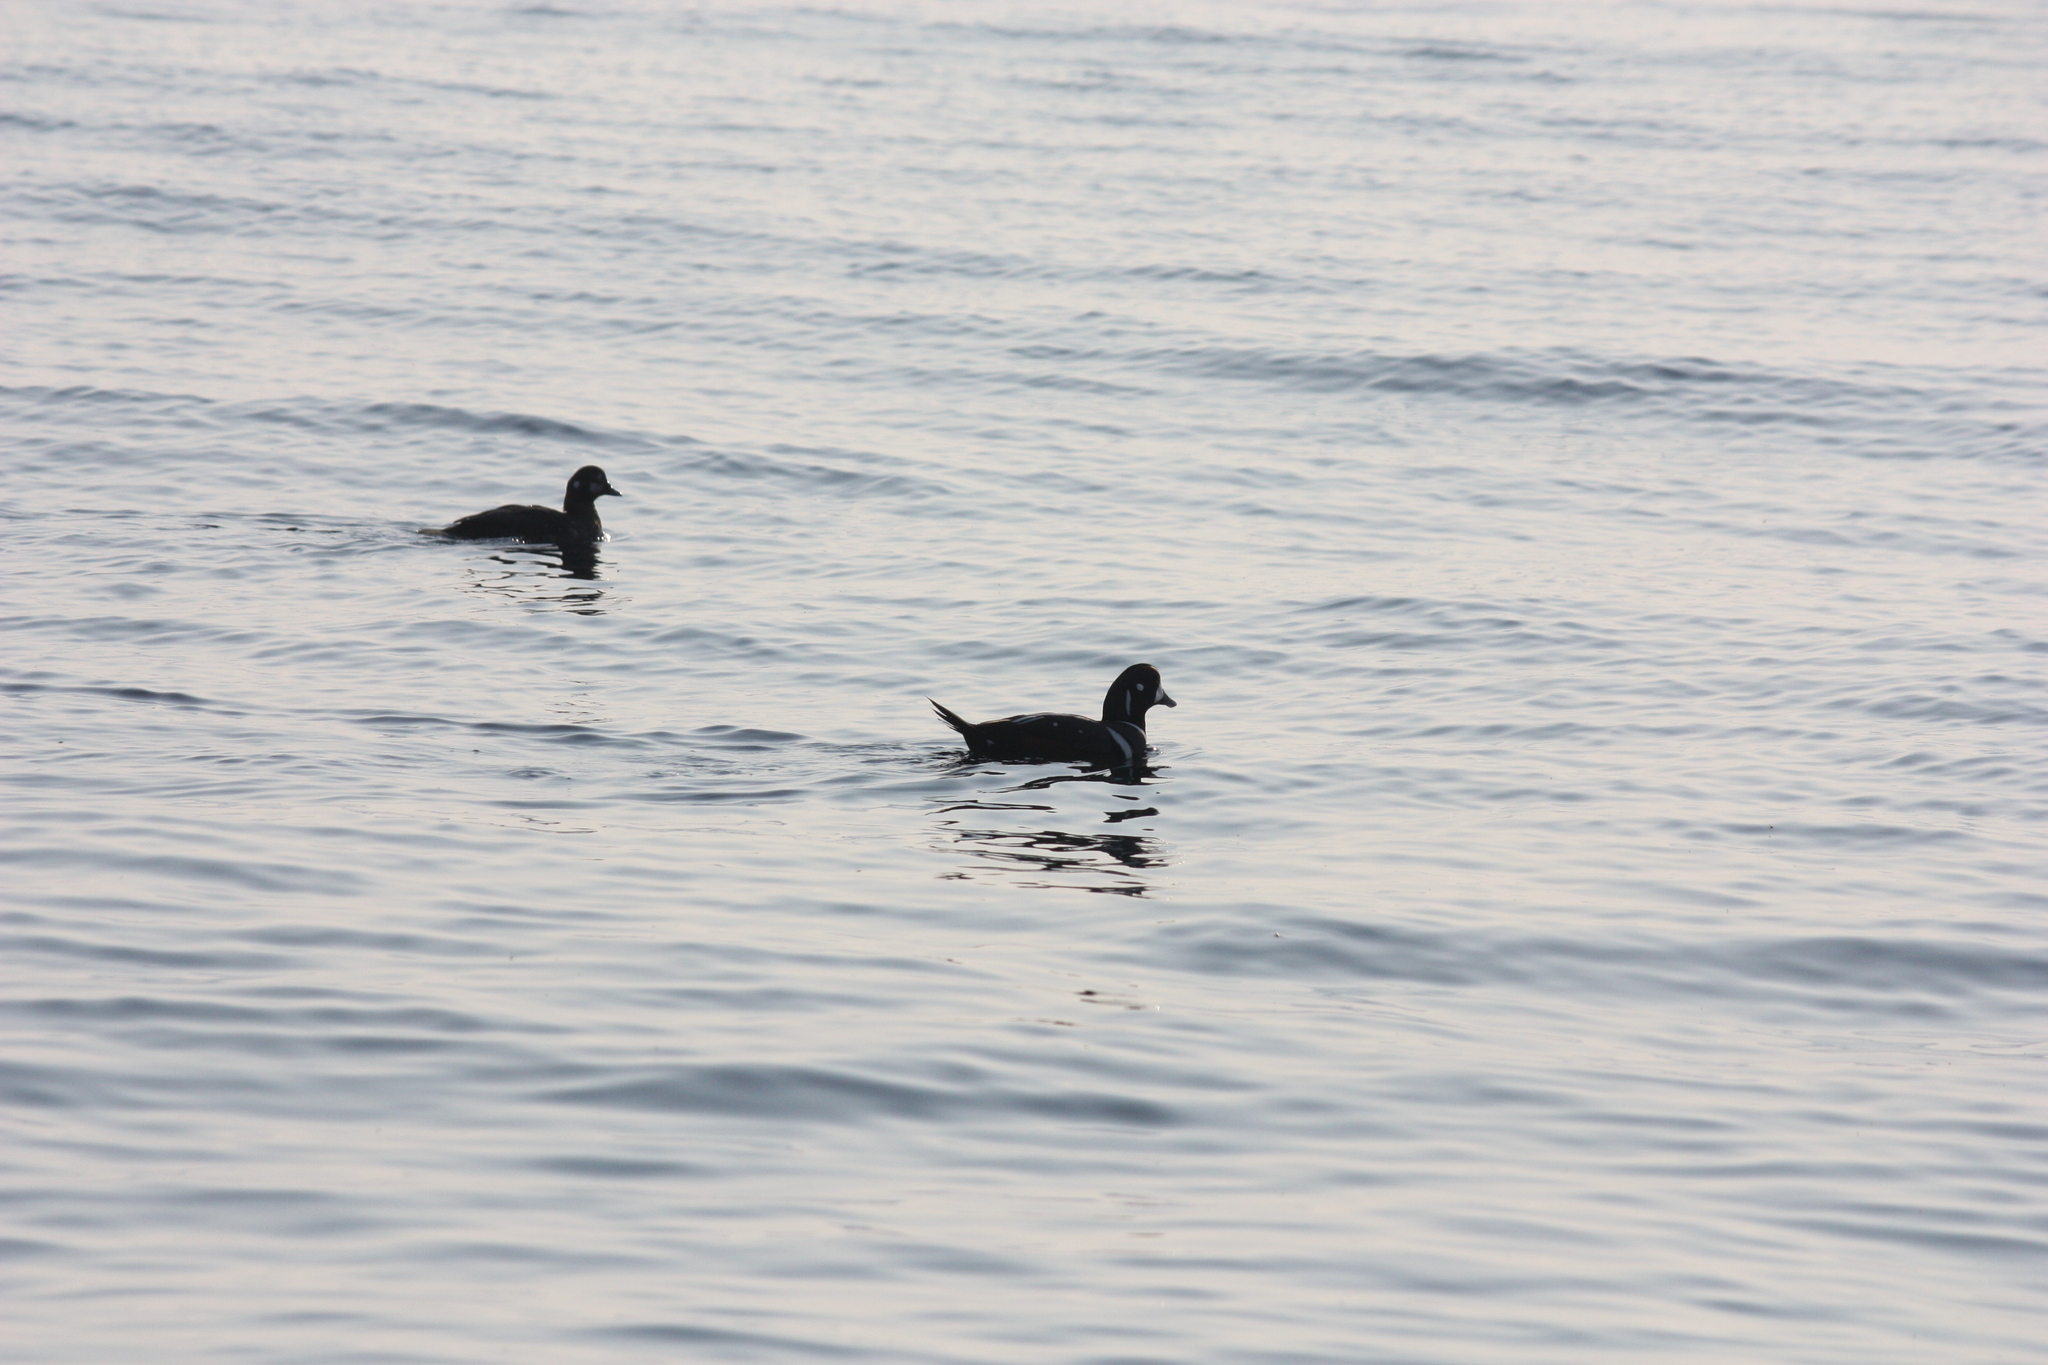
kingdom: Animalia
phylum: Chordata
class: Aves
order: Anseriformes
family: Anatidae
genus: Histrionicus
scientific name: Histrionicus histrionicus
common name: Harlequin duck
